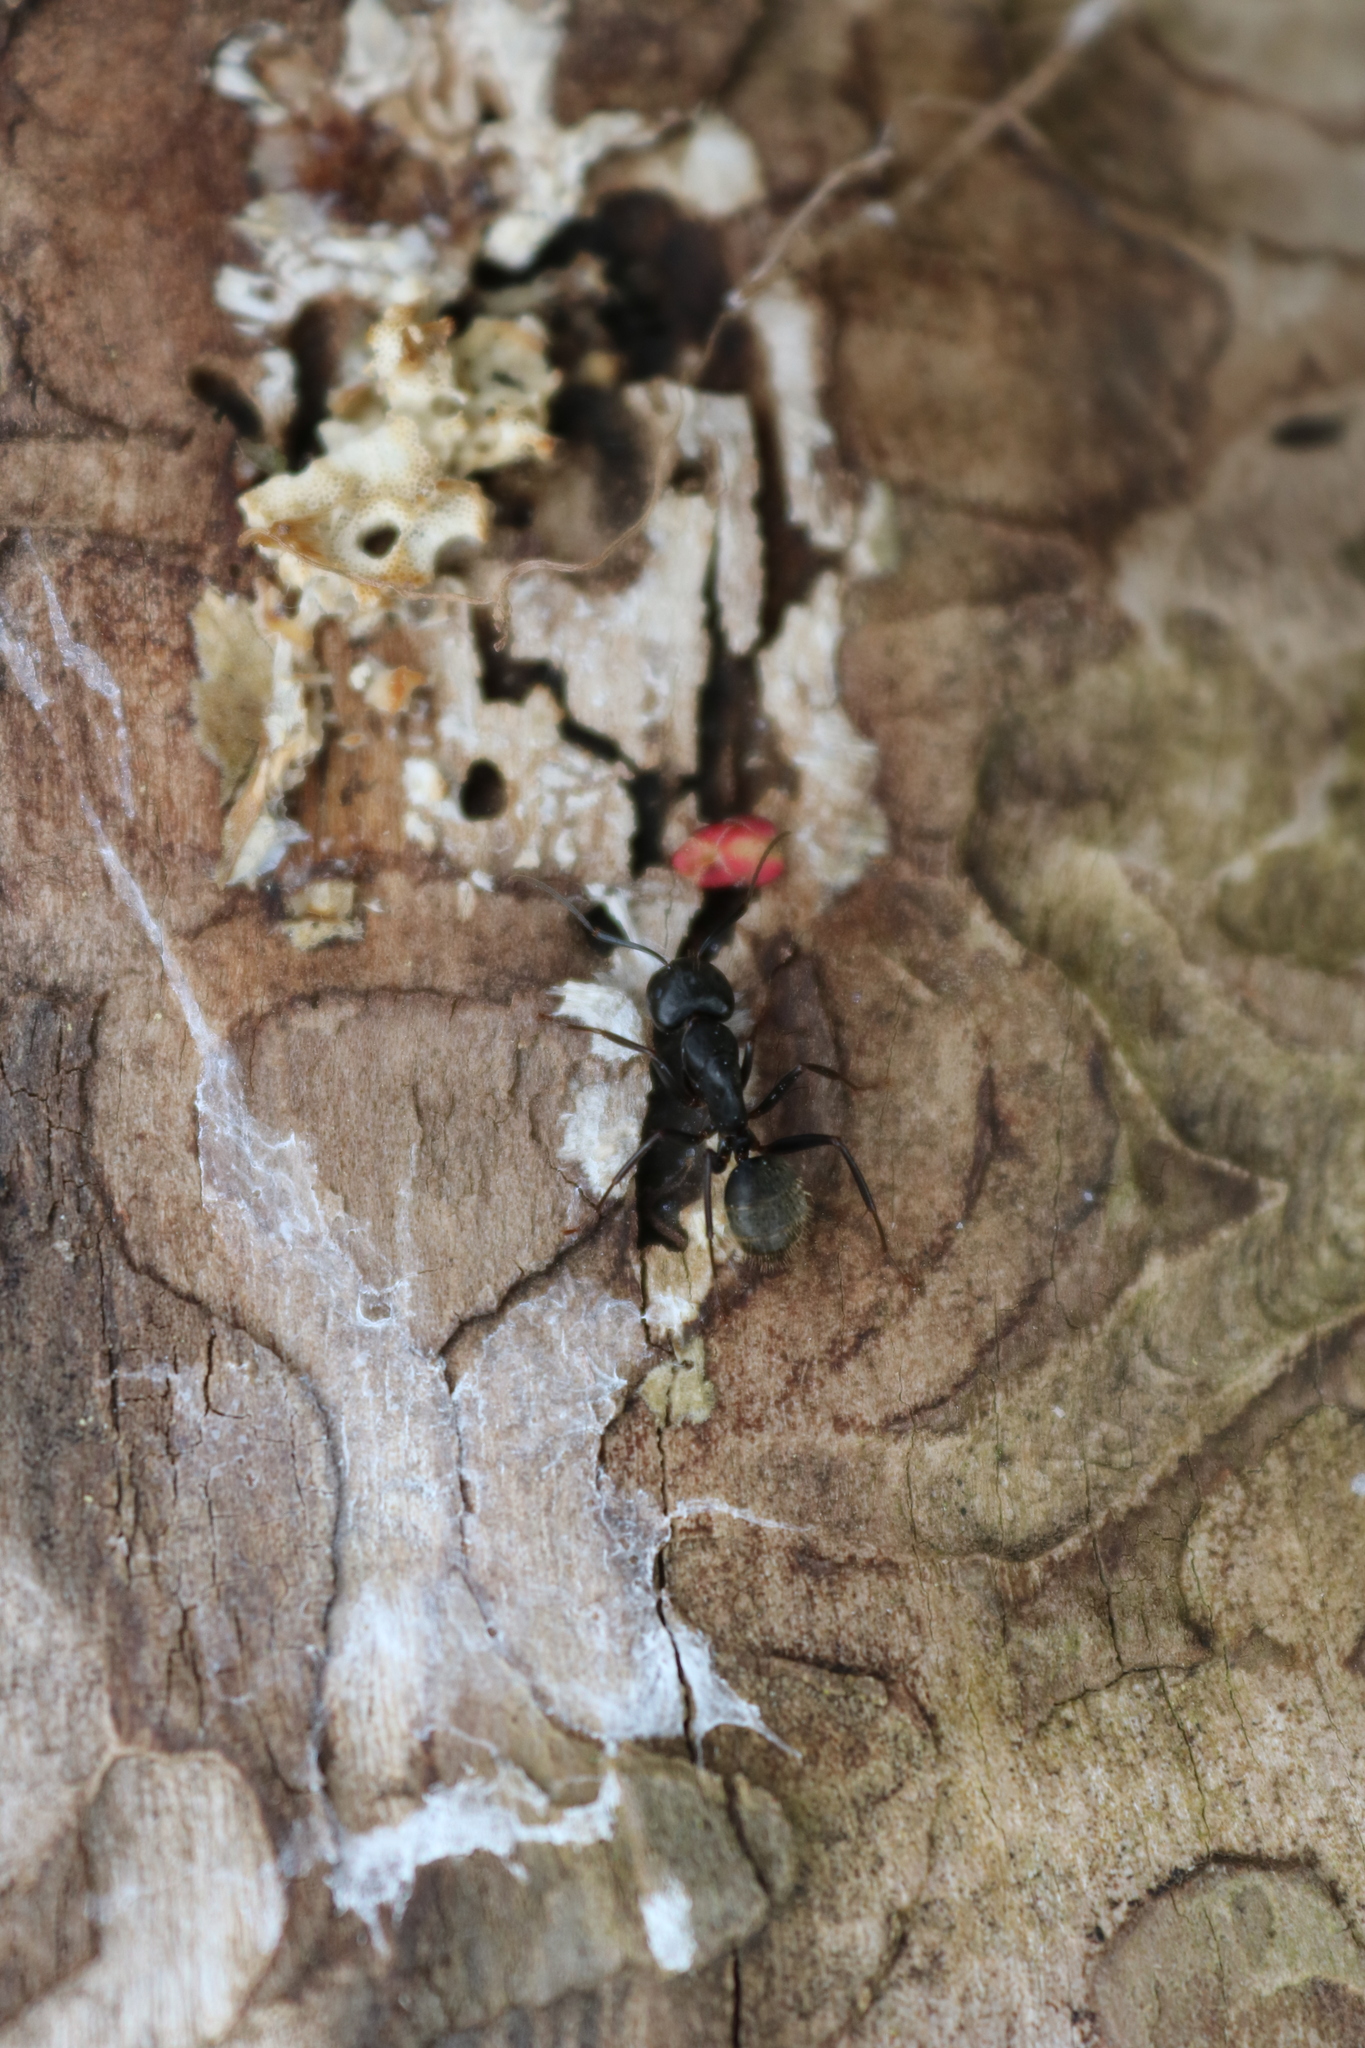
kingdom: Animalia
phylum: Arthropoda
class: Insecta
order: Hymenoptera
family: Formicidae
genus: Camponotus
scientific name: Camponotus pennsylvanicus
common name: Black carpenter ant
